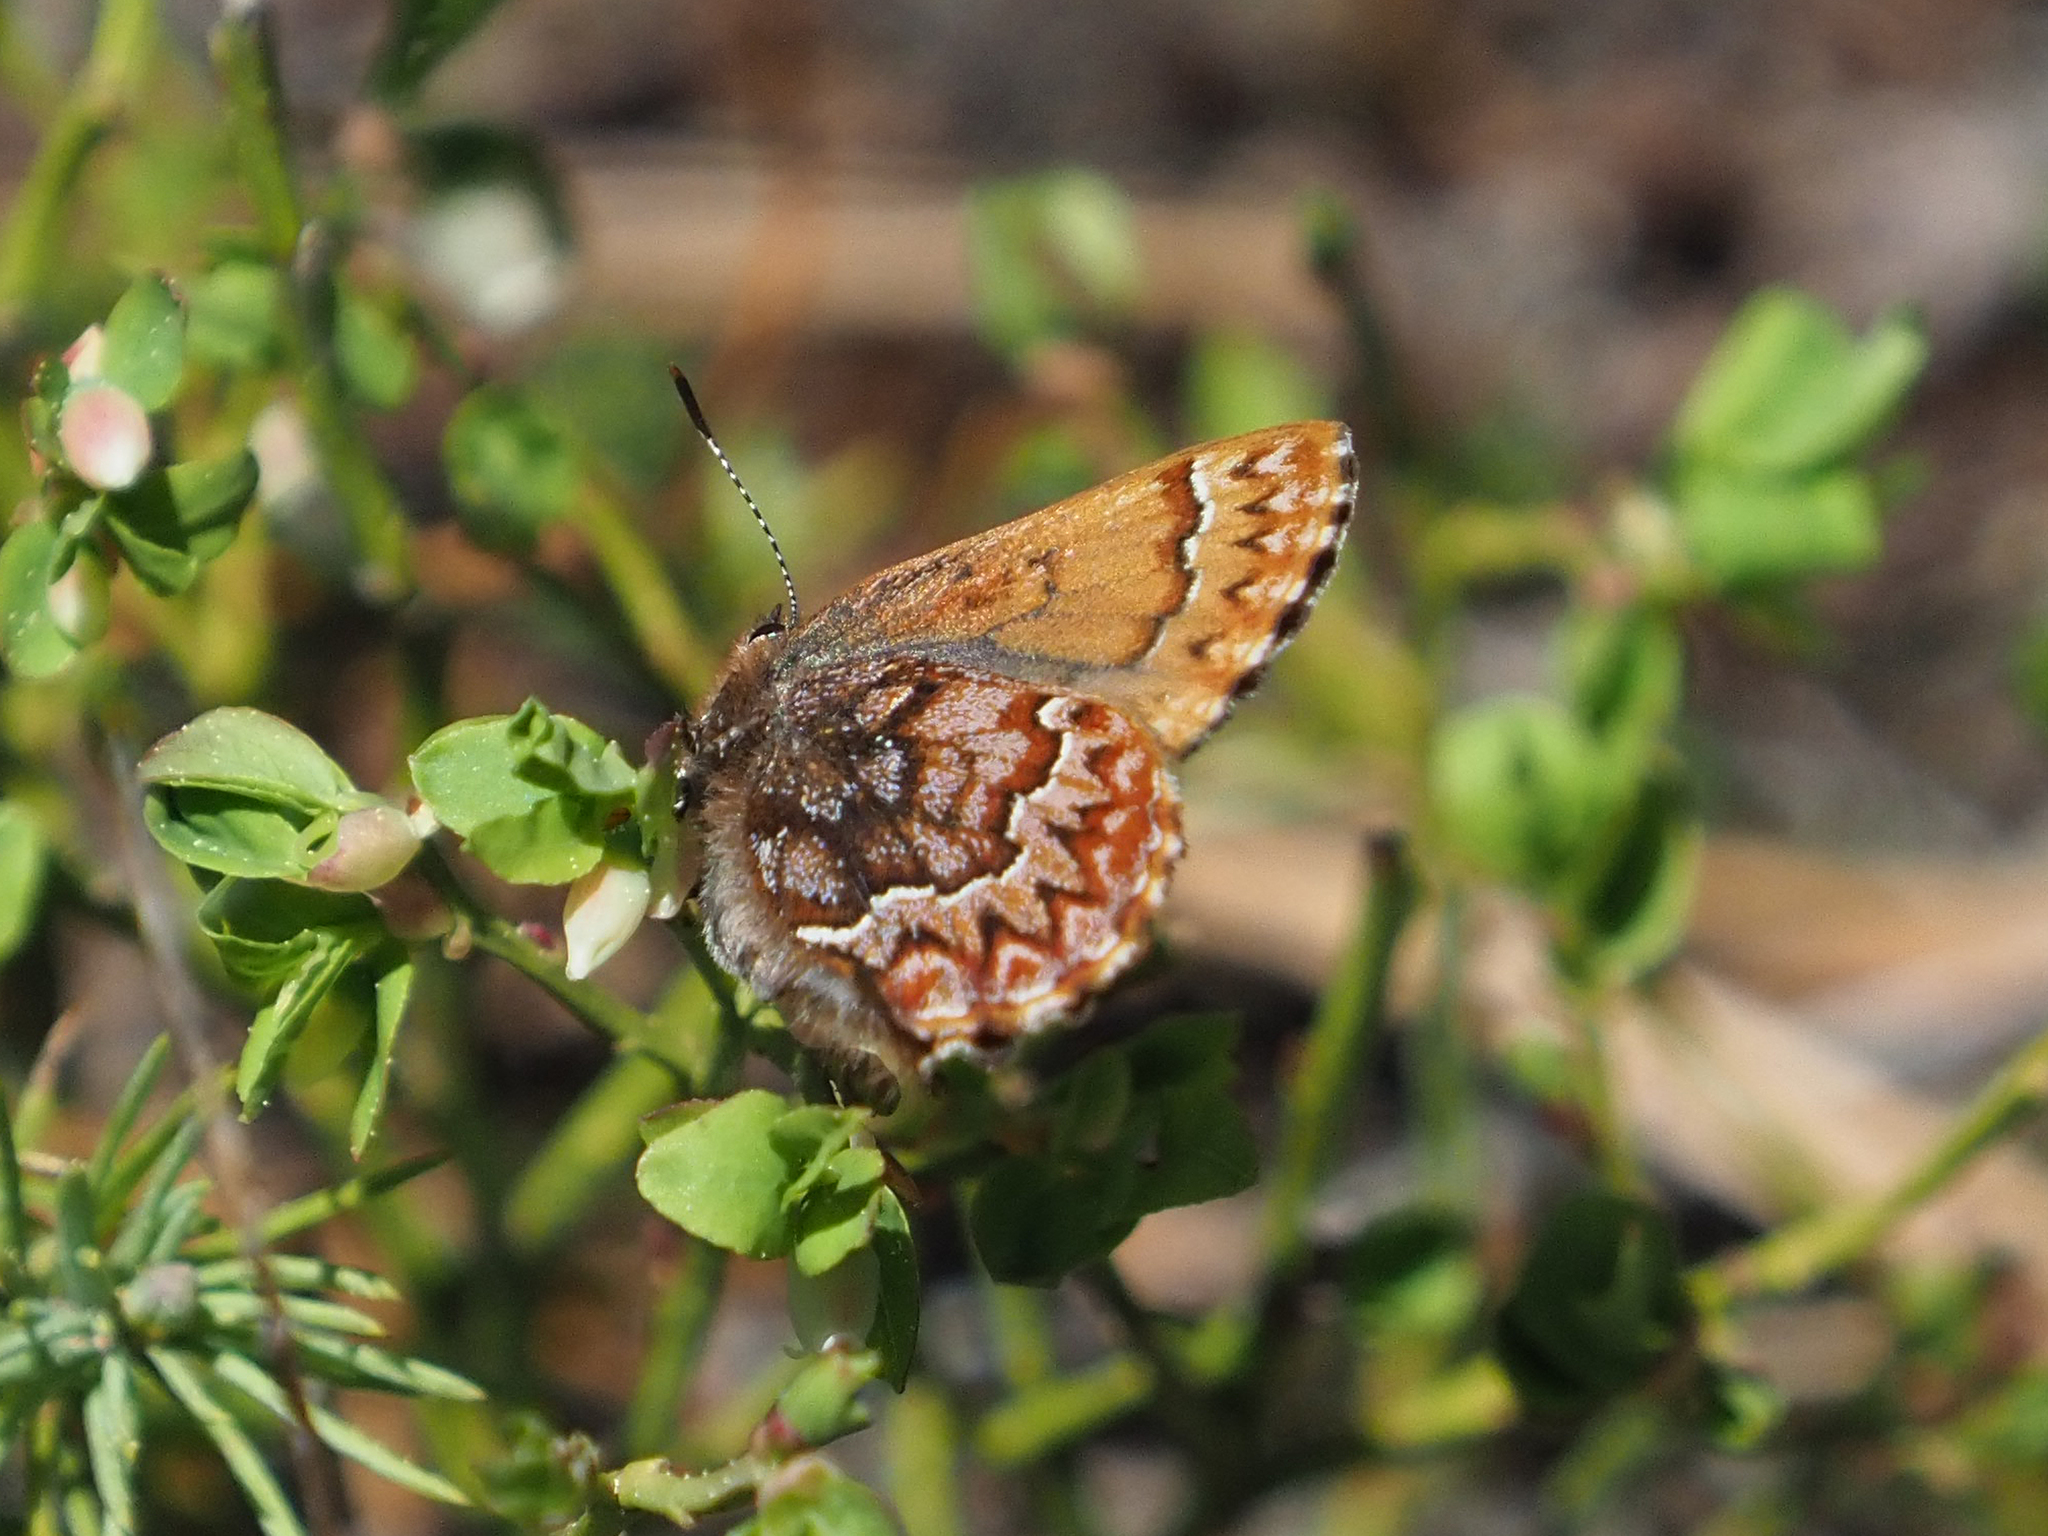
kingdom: Animalia
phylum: Arthropoda
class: Insecta
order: Lepidoptera
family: Lycaenidae
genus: Incisalia
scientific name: Incisalia eryphon
